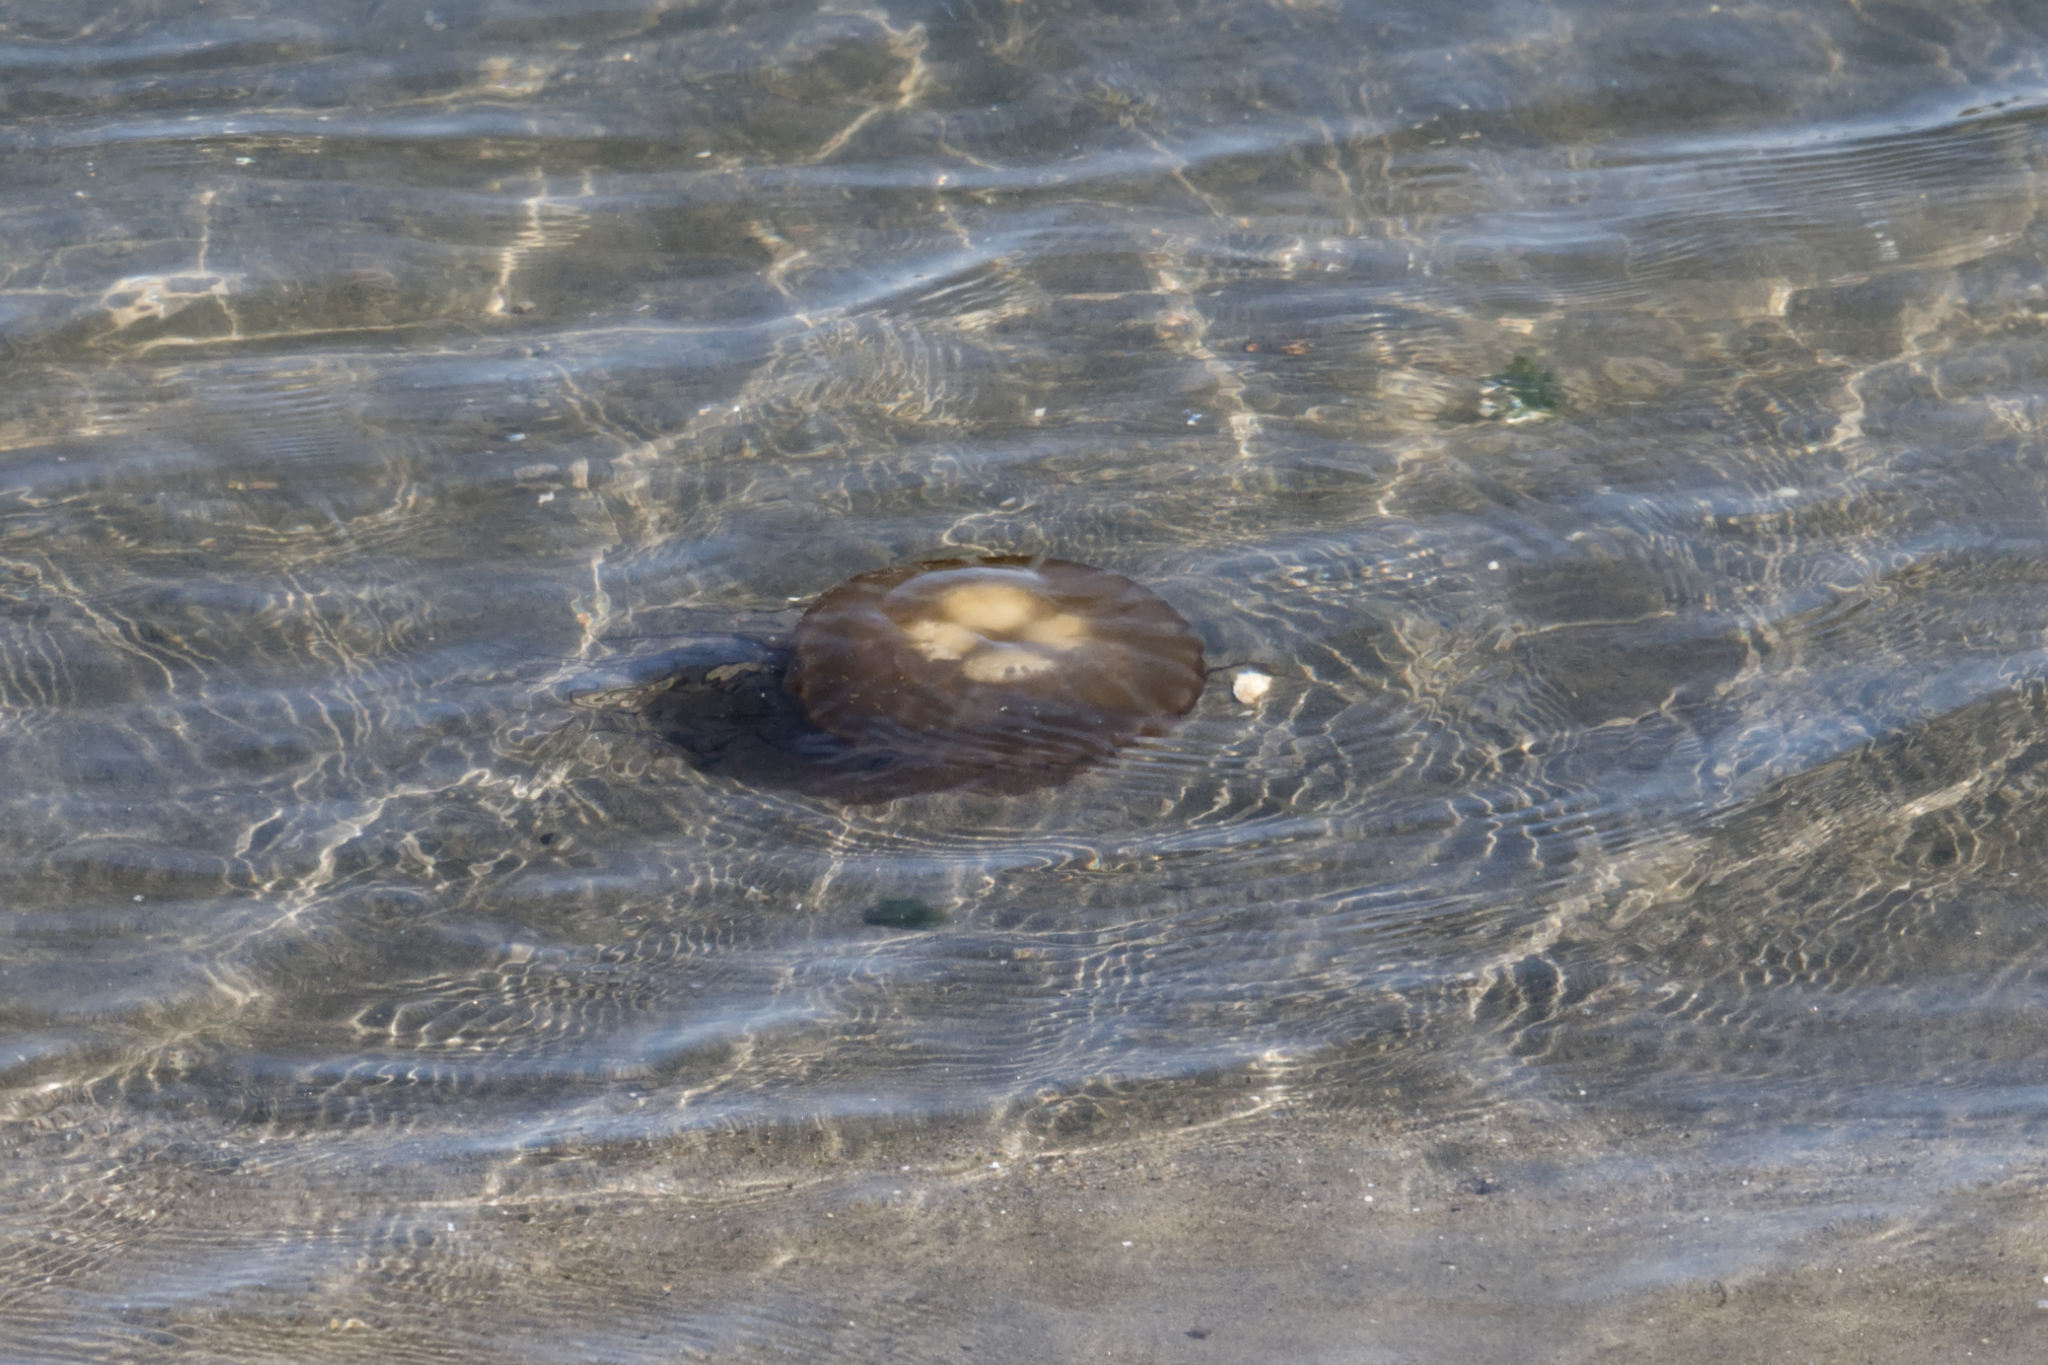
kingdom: Animalia
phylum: Cnidaria
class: Scyphozoa
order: Semaeostomeae
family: Pelagiidae
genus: Chrysaora
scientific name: Chrysaora fuscescens
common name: Sea nettle
